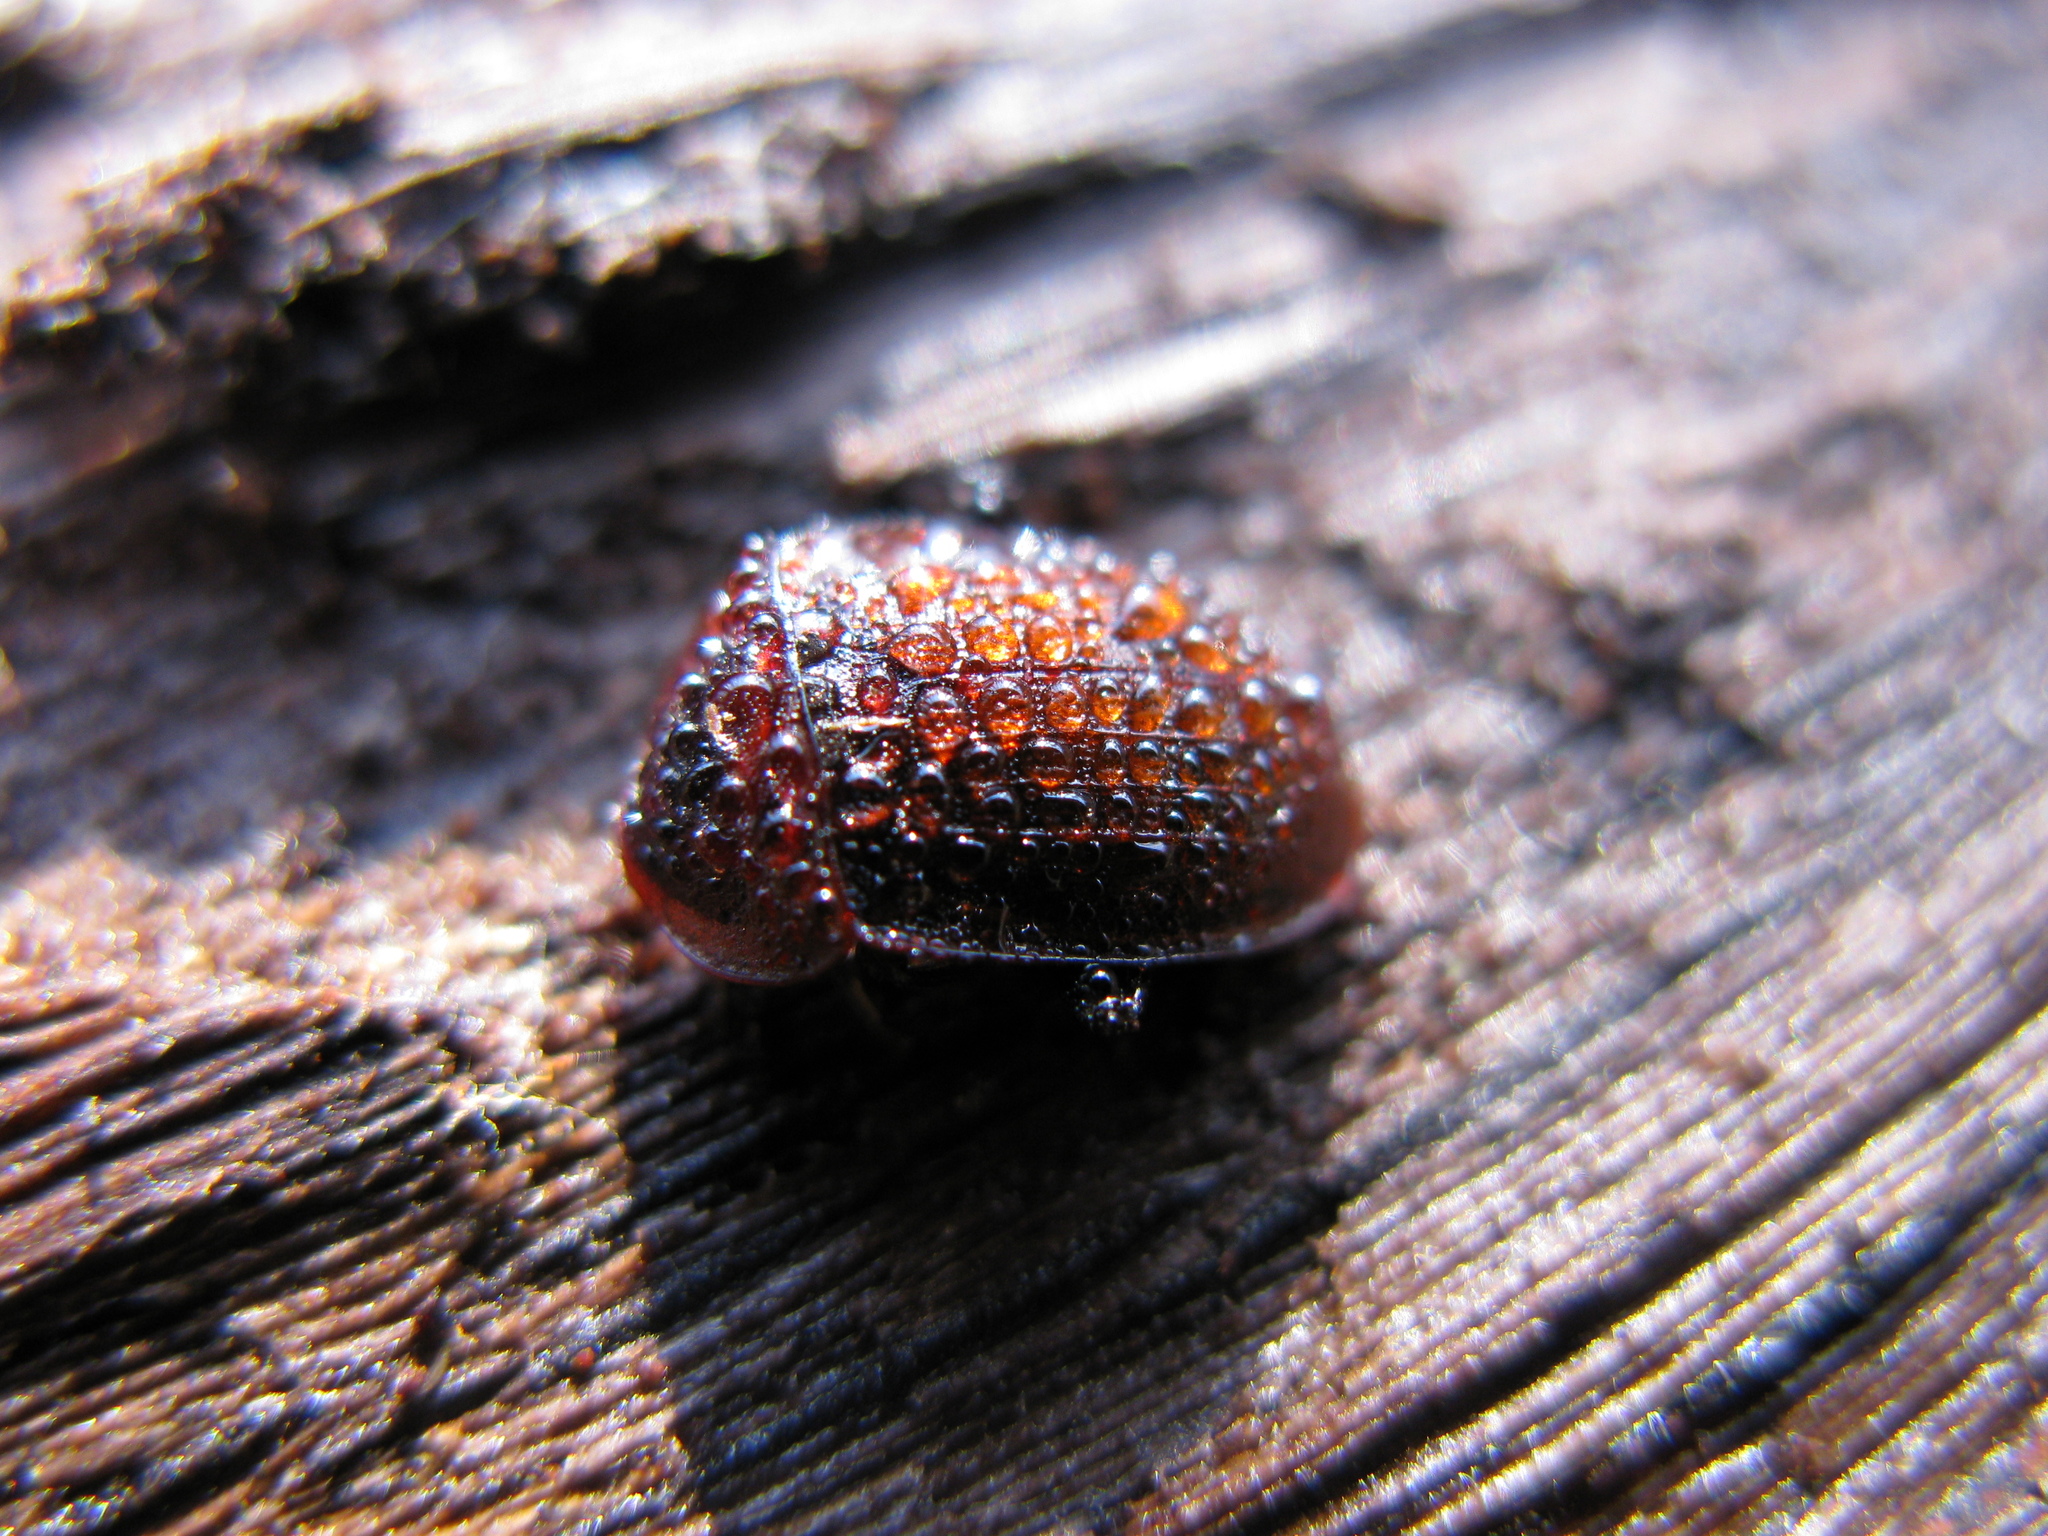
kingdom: Animalia
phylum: Arthropoda
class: Insecta
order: Coleoptera
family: Staphylinidae
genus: Silpha
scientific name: Silpha atrata
